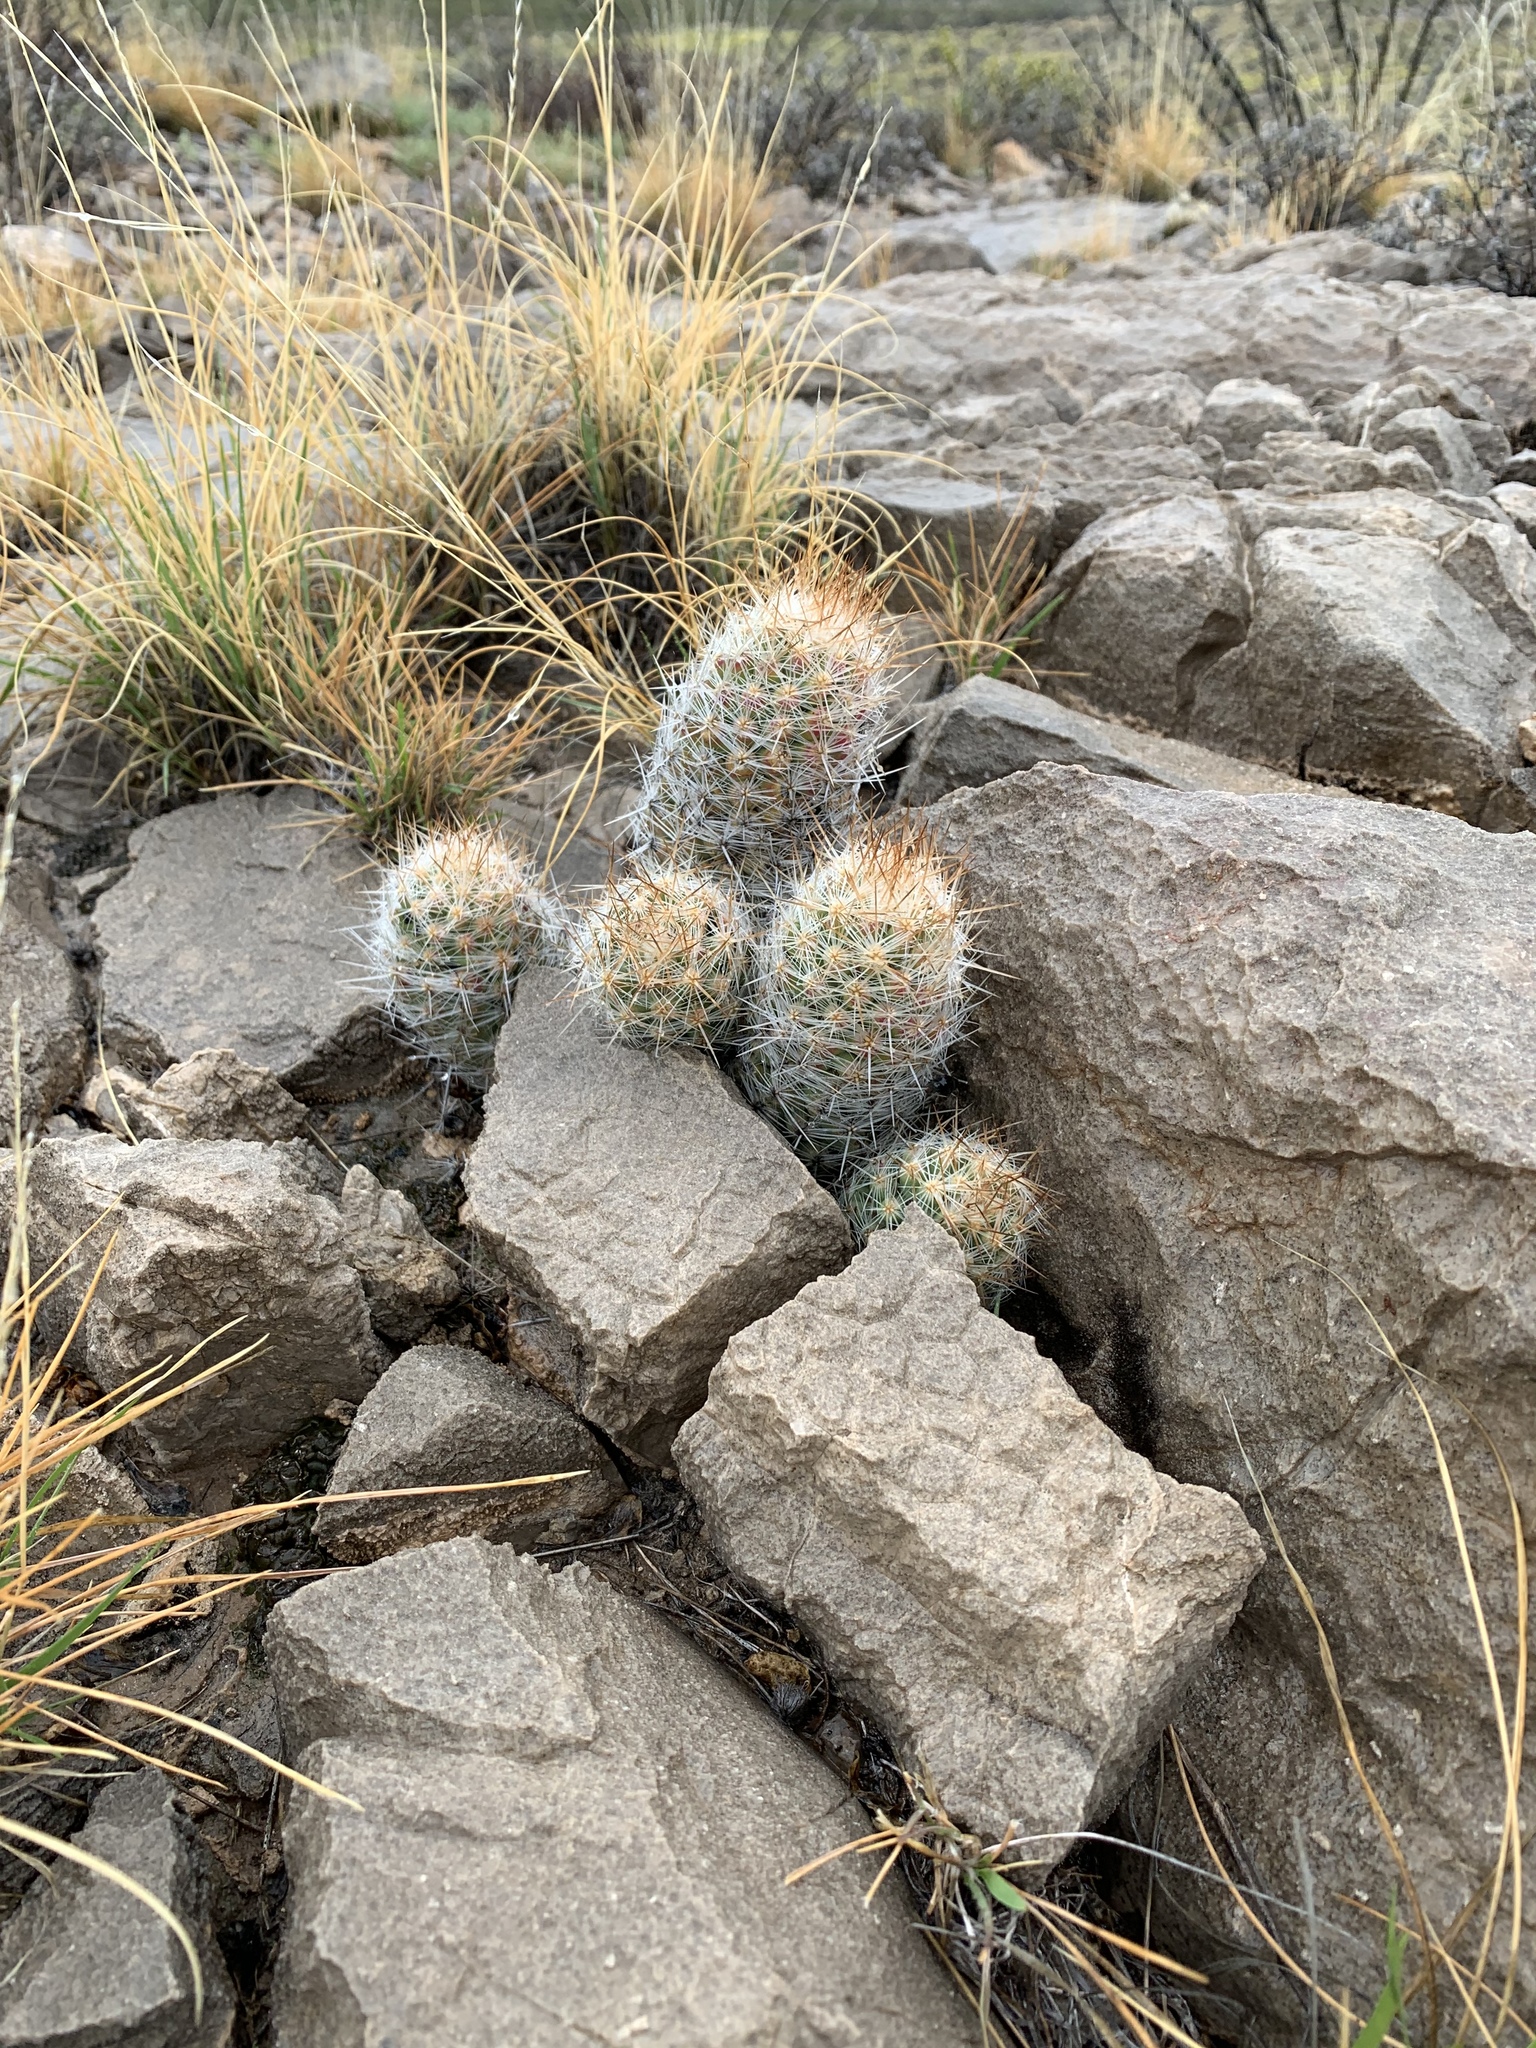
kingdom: Plantae
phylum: Tracheophyta
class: Magnoliopsida
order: Caryophyllales
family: Cactaceae
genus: Pelecyphora
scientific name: Pelecyphora tuberculosa
